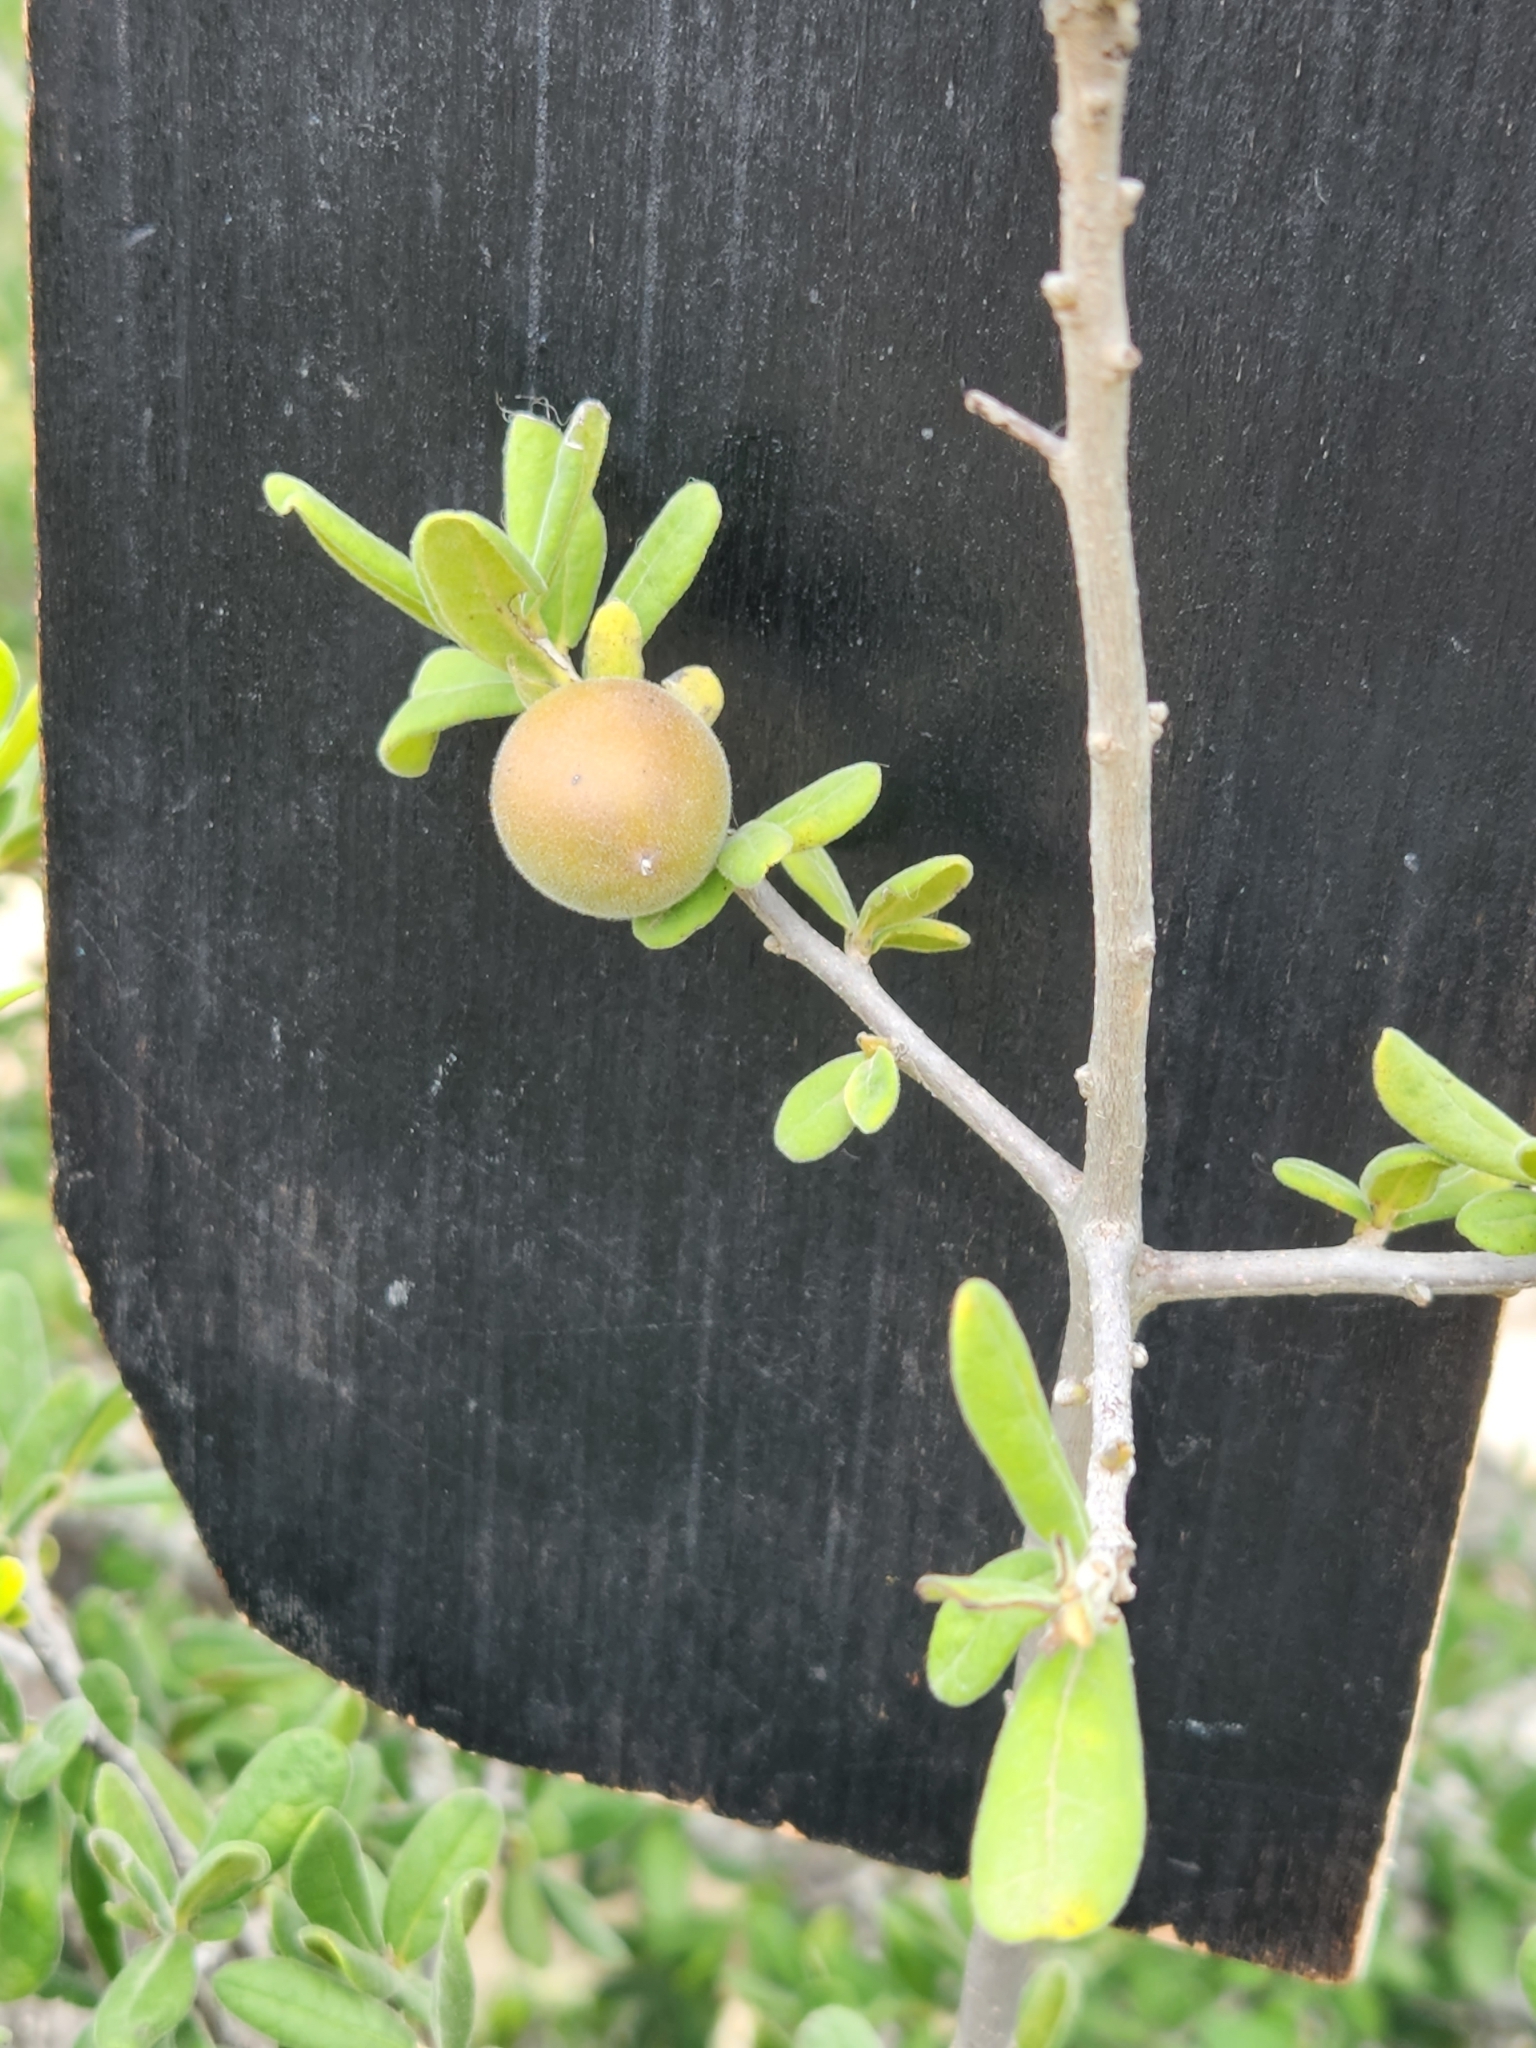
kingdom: Plantae
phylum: Tracheophyta
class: Magnoliopsida
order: Ericales
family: Ebenaceae
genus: Diospyros
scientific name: Diospyros texana
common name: Texas persimmon
